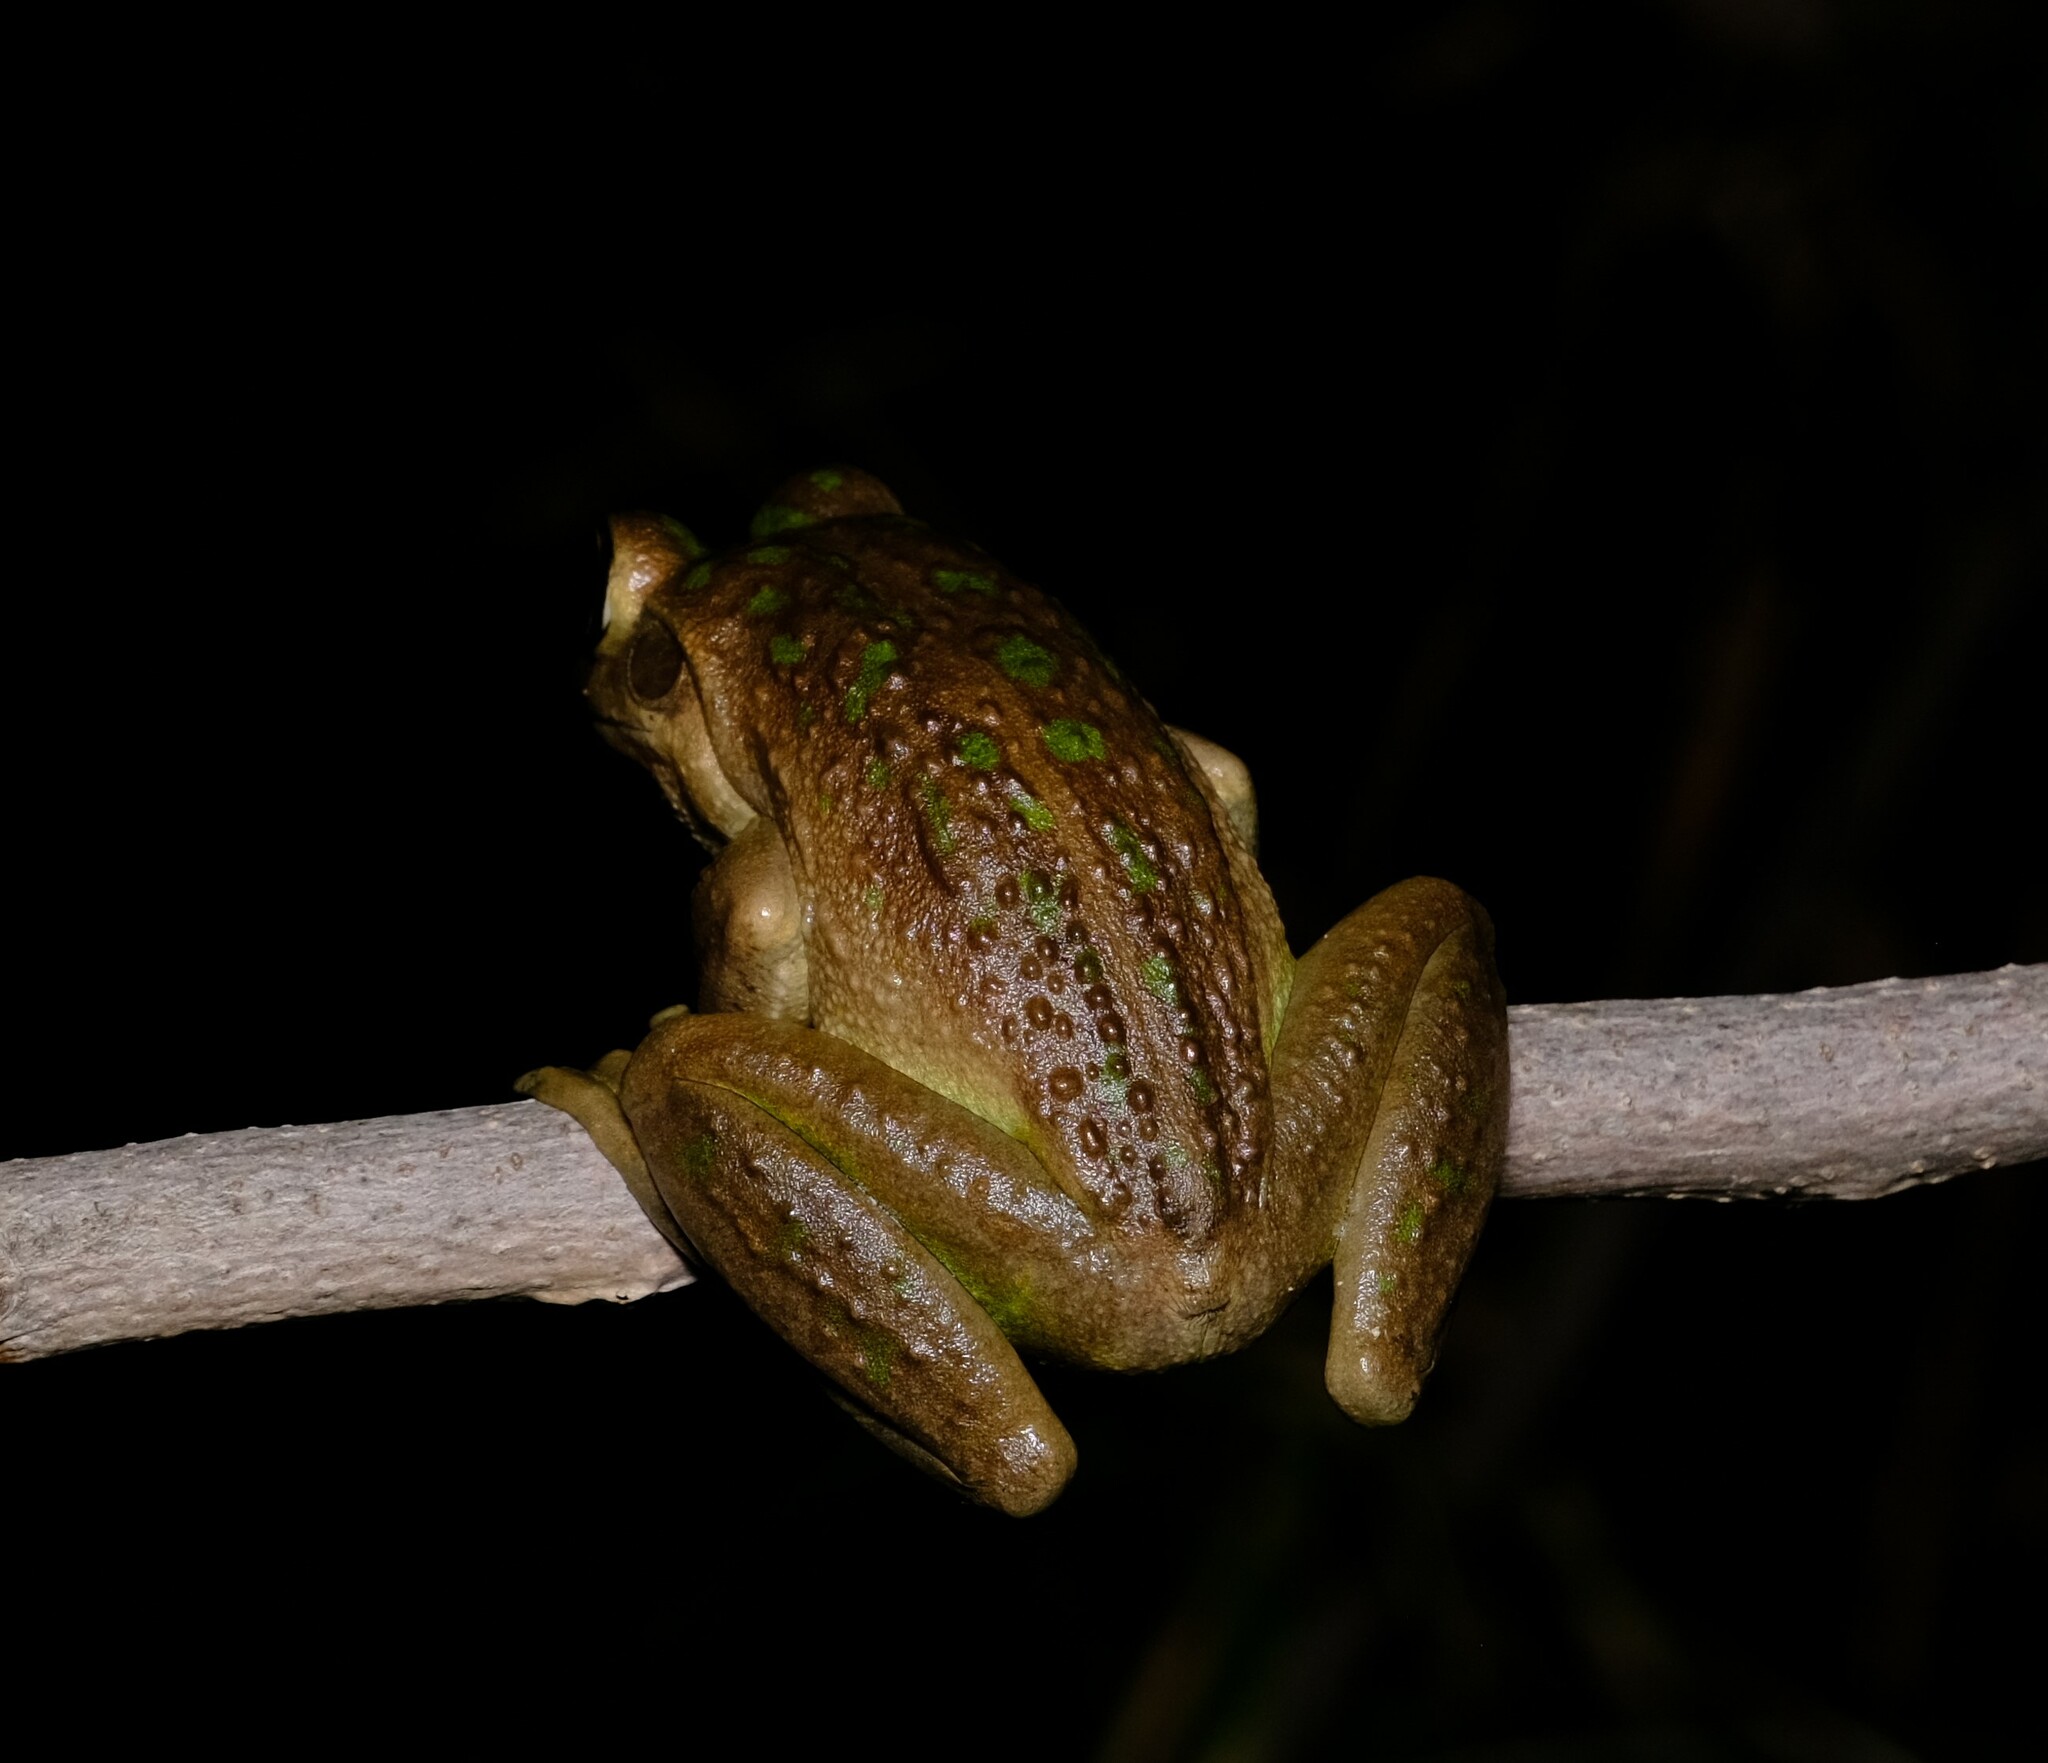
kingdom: Animalia
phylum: Chordata
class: Amphibia
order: Anura
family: Pelodryadidae
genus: Ranoidea
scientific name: Ranoidea moorei
